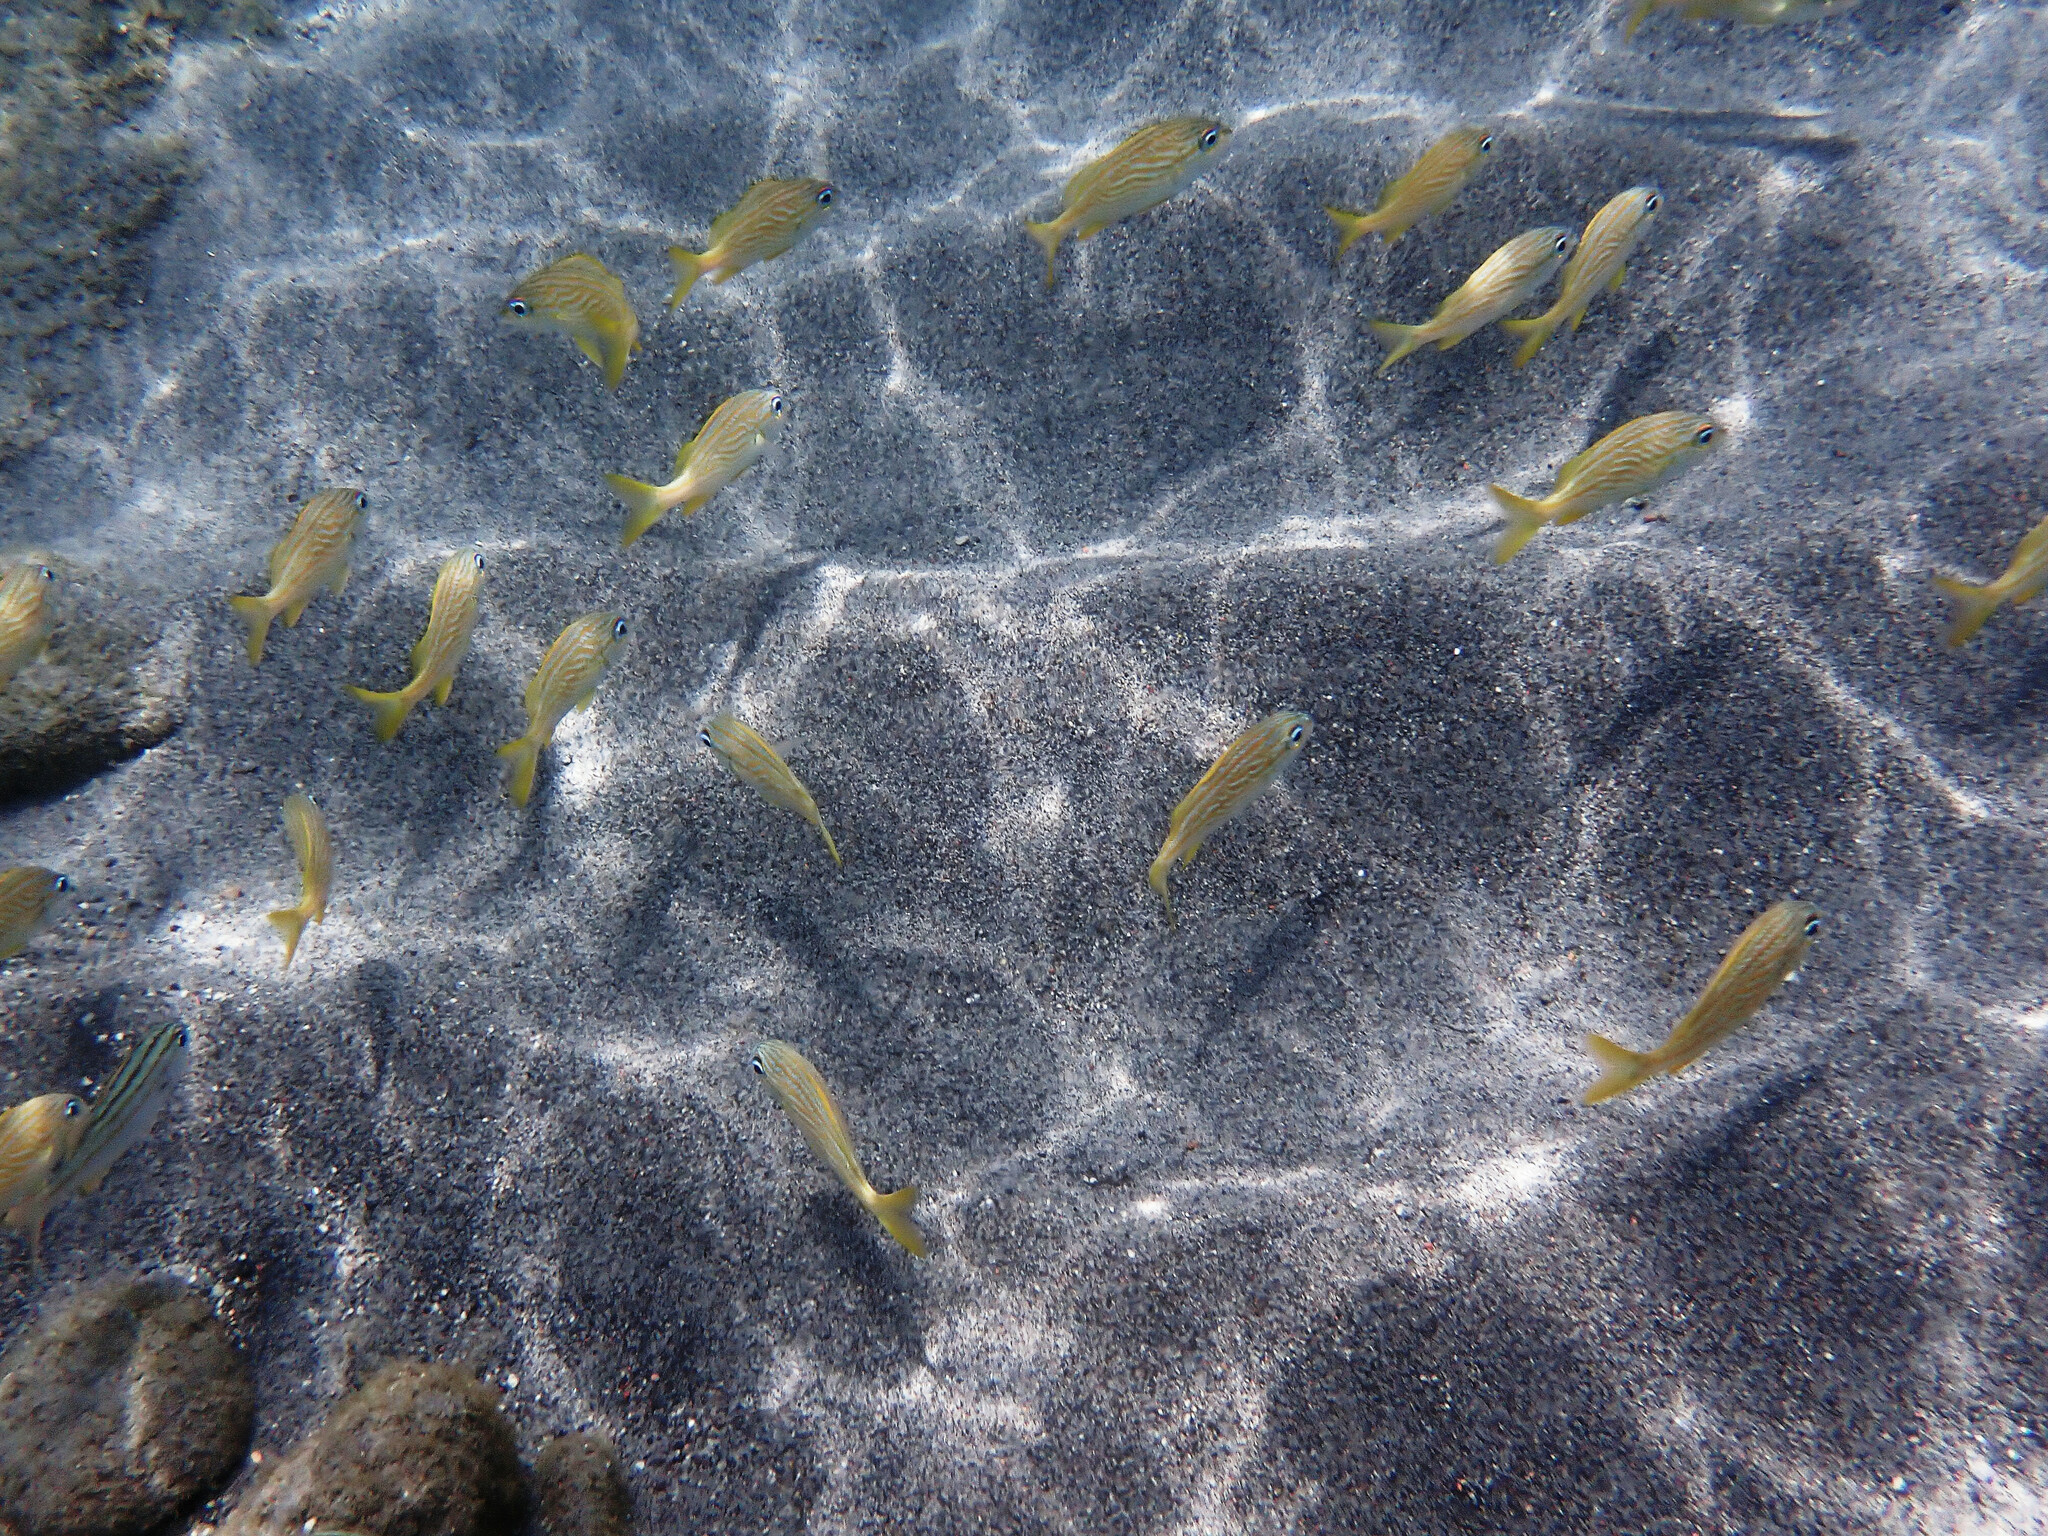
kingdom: Animalia
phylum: Chordata
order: Perciformes
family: Haemulidae
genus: Haemulon
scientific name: Haemulon flavolineatum
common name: French grunt
